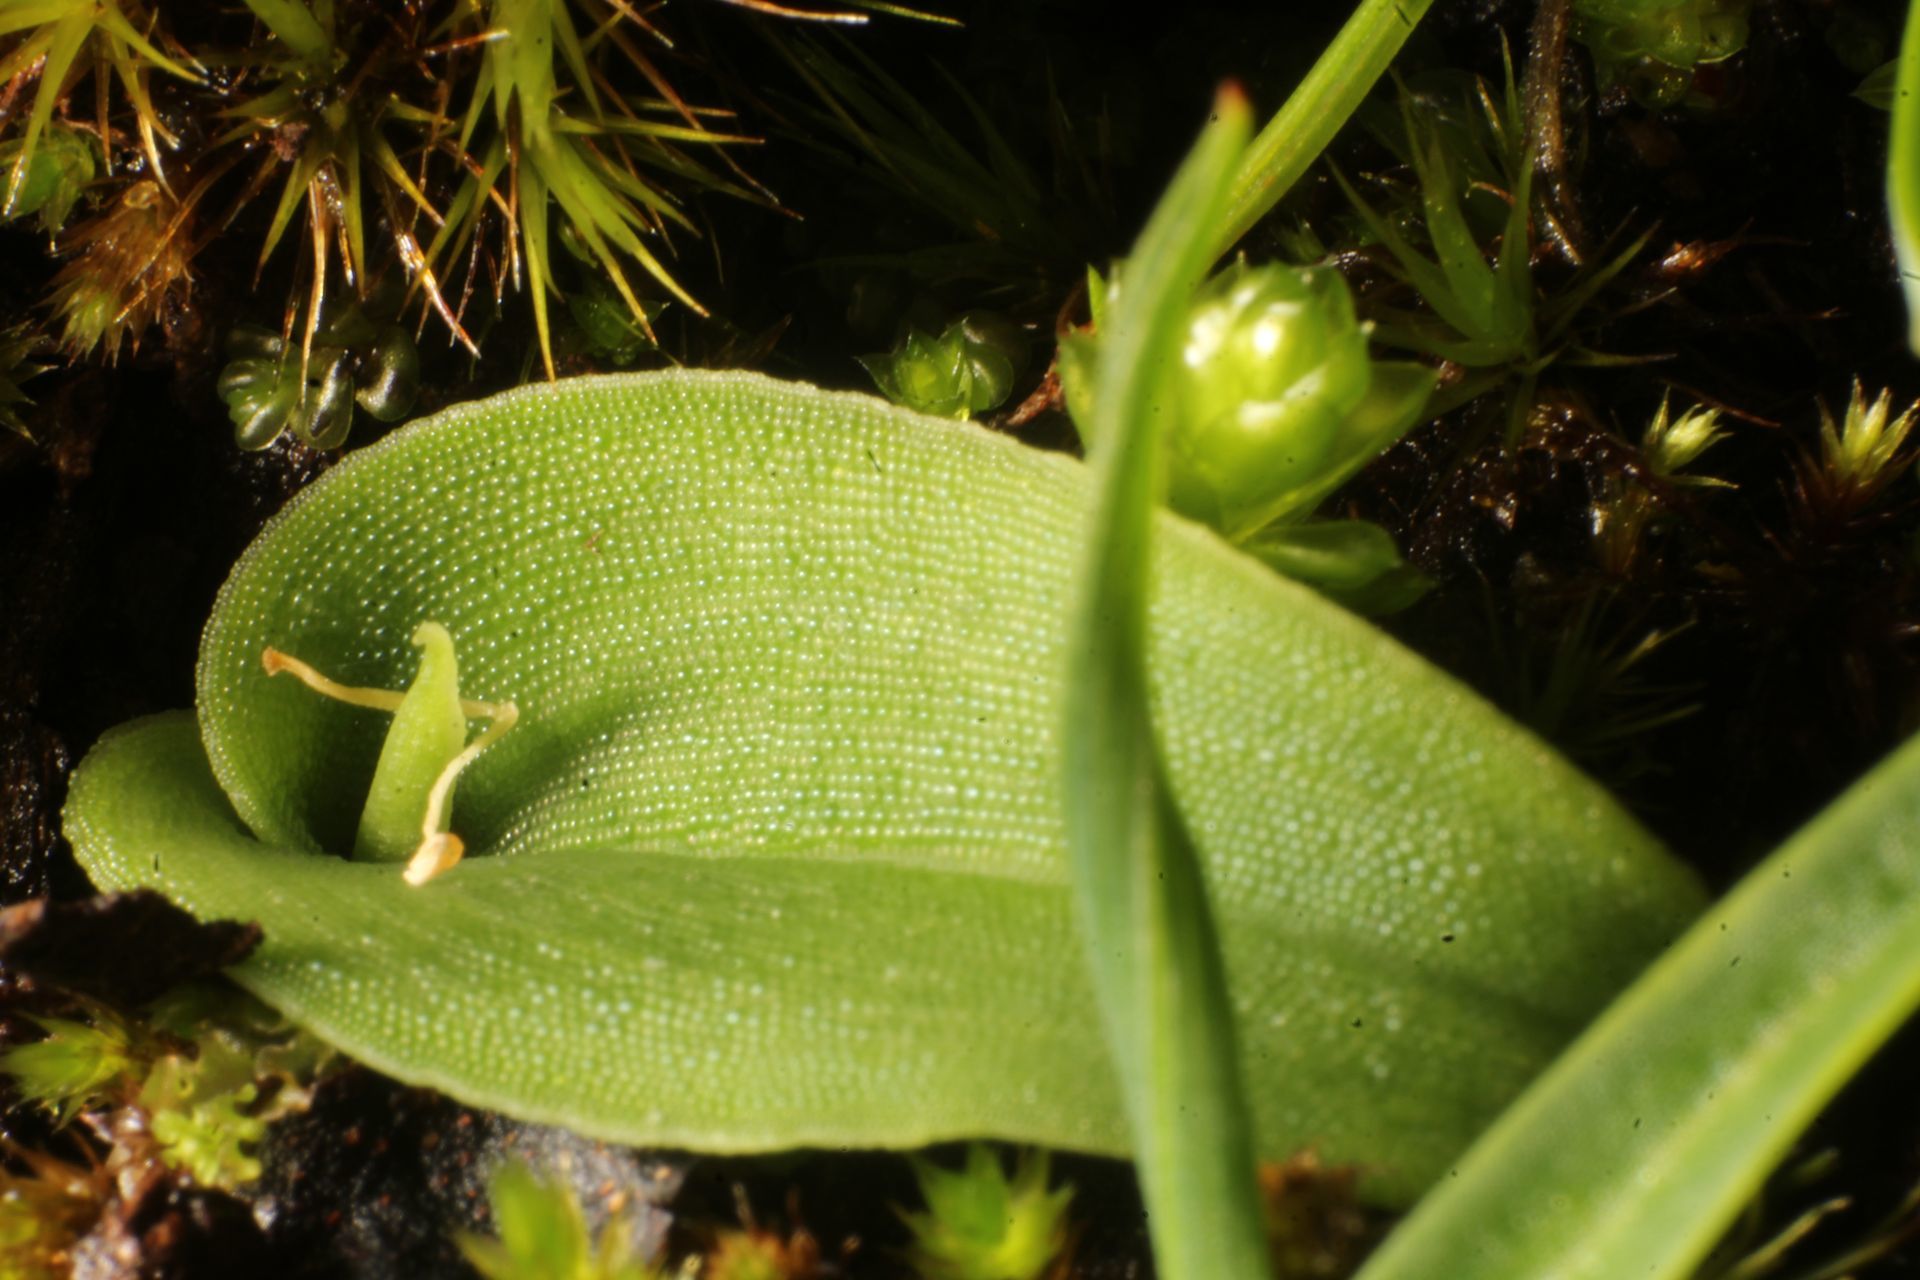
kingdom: Plantae
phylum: Tracheophyta
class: Liliopsida
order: Asparagales
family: Orchidaceae
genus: Leptoceras
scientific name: Leptoceras menziesii
